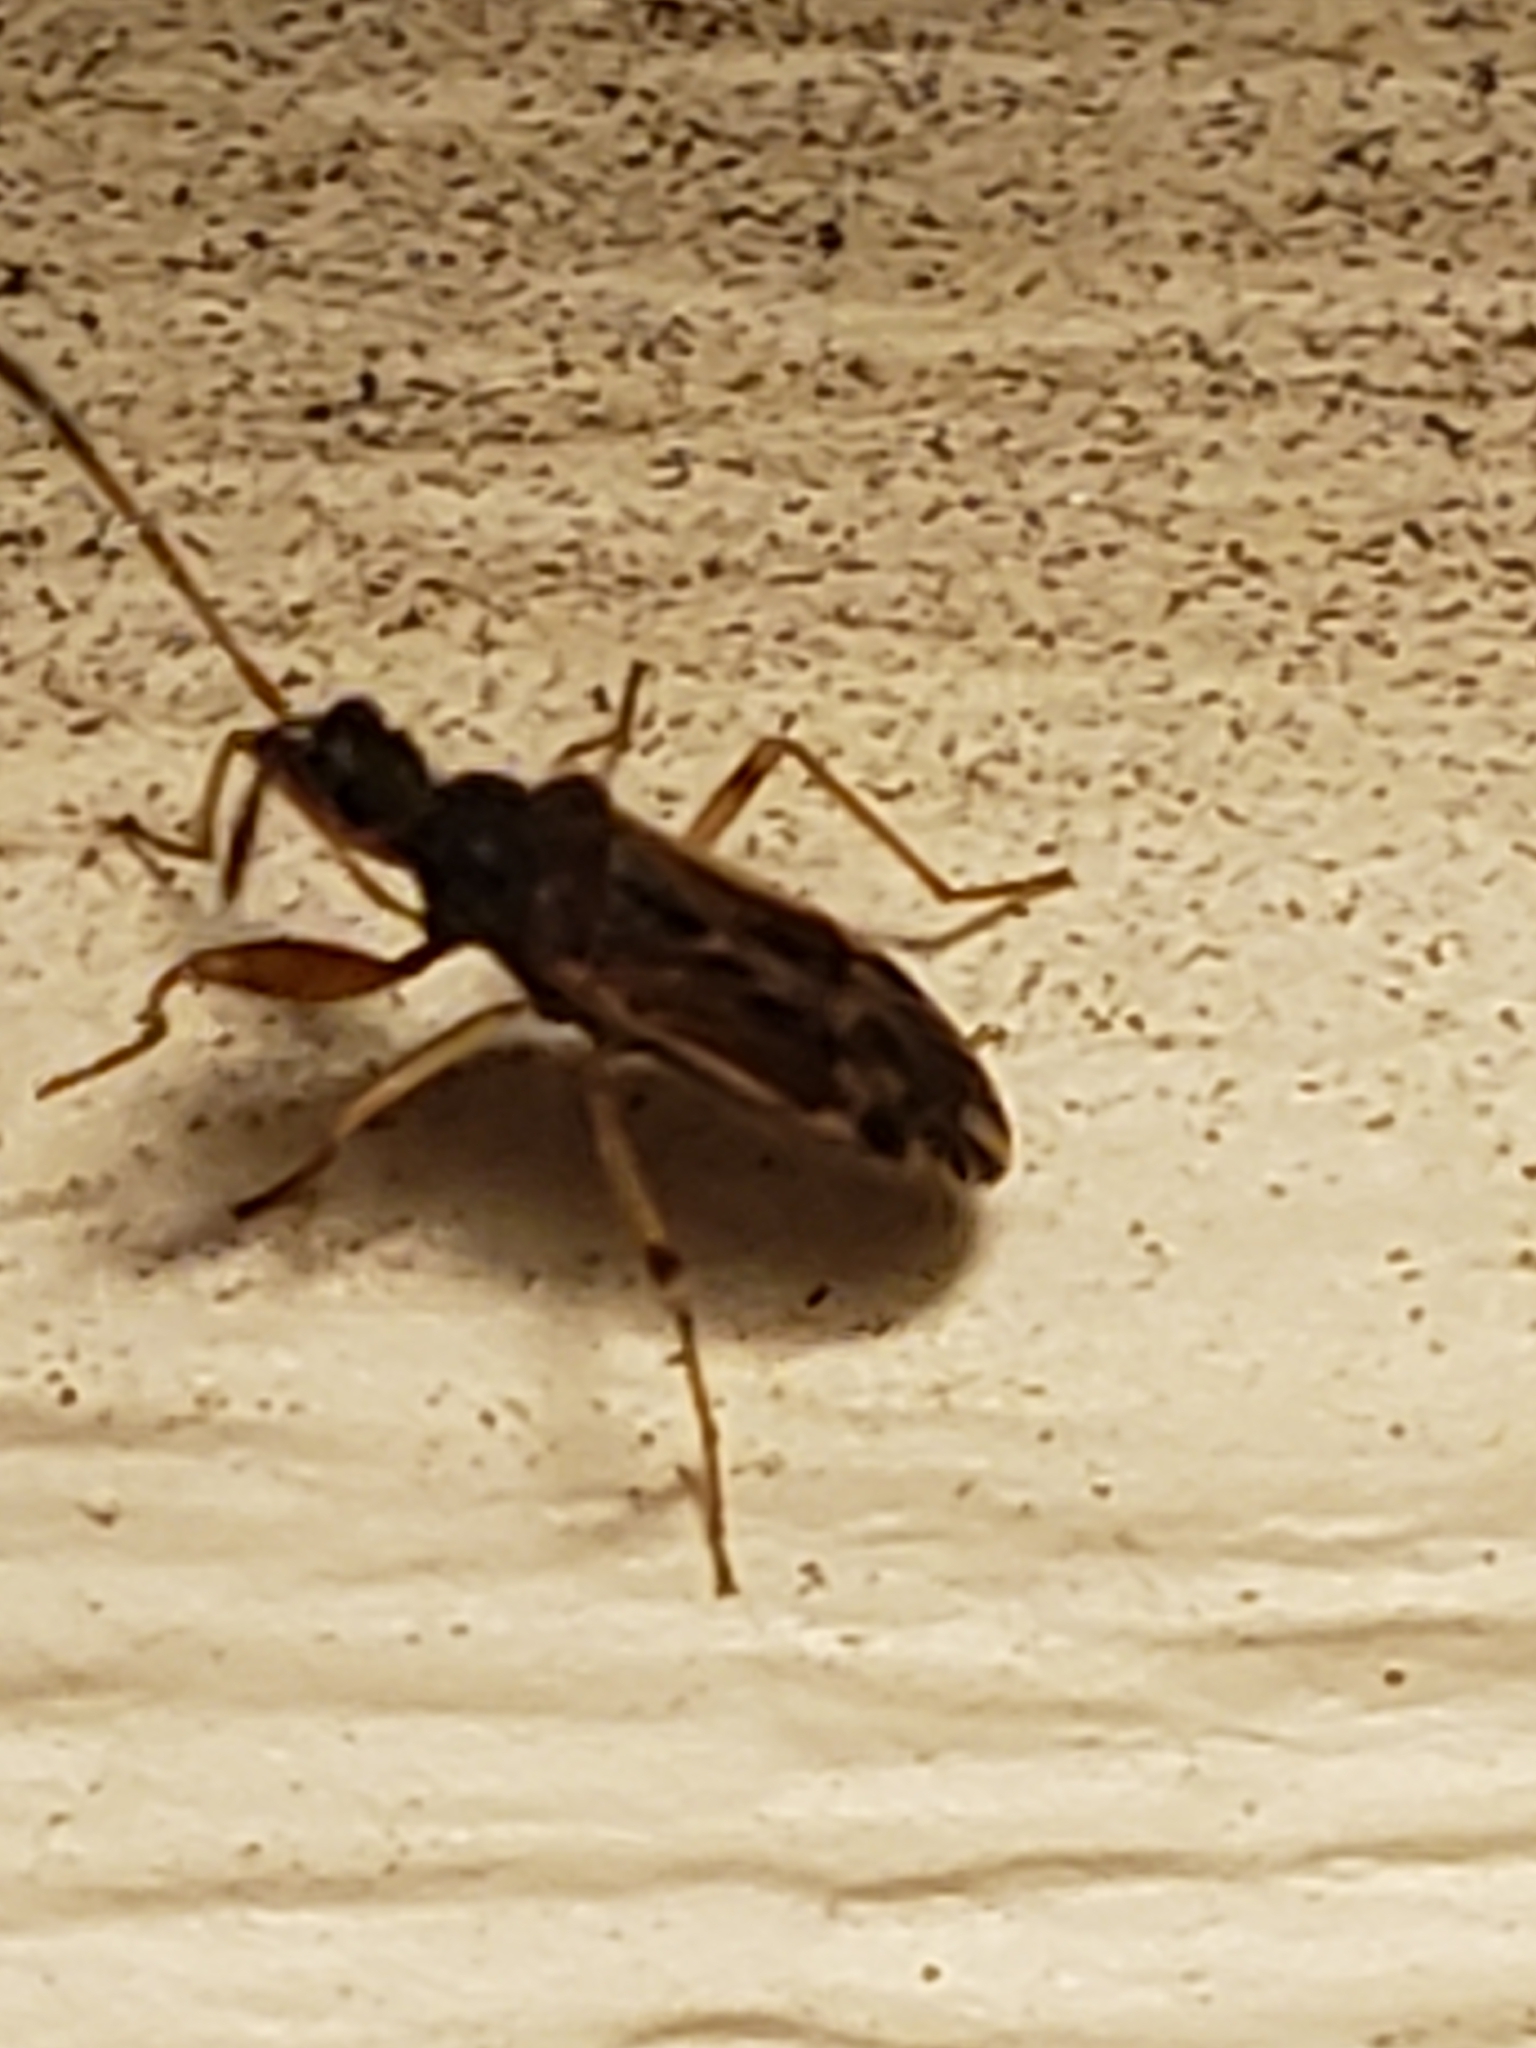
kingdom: Animalia
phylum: Arthropoda
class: Insecta
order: Hemiptera
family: Rhyparochromidae
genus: Heraeus
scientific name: Heraeus plebejus
